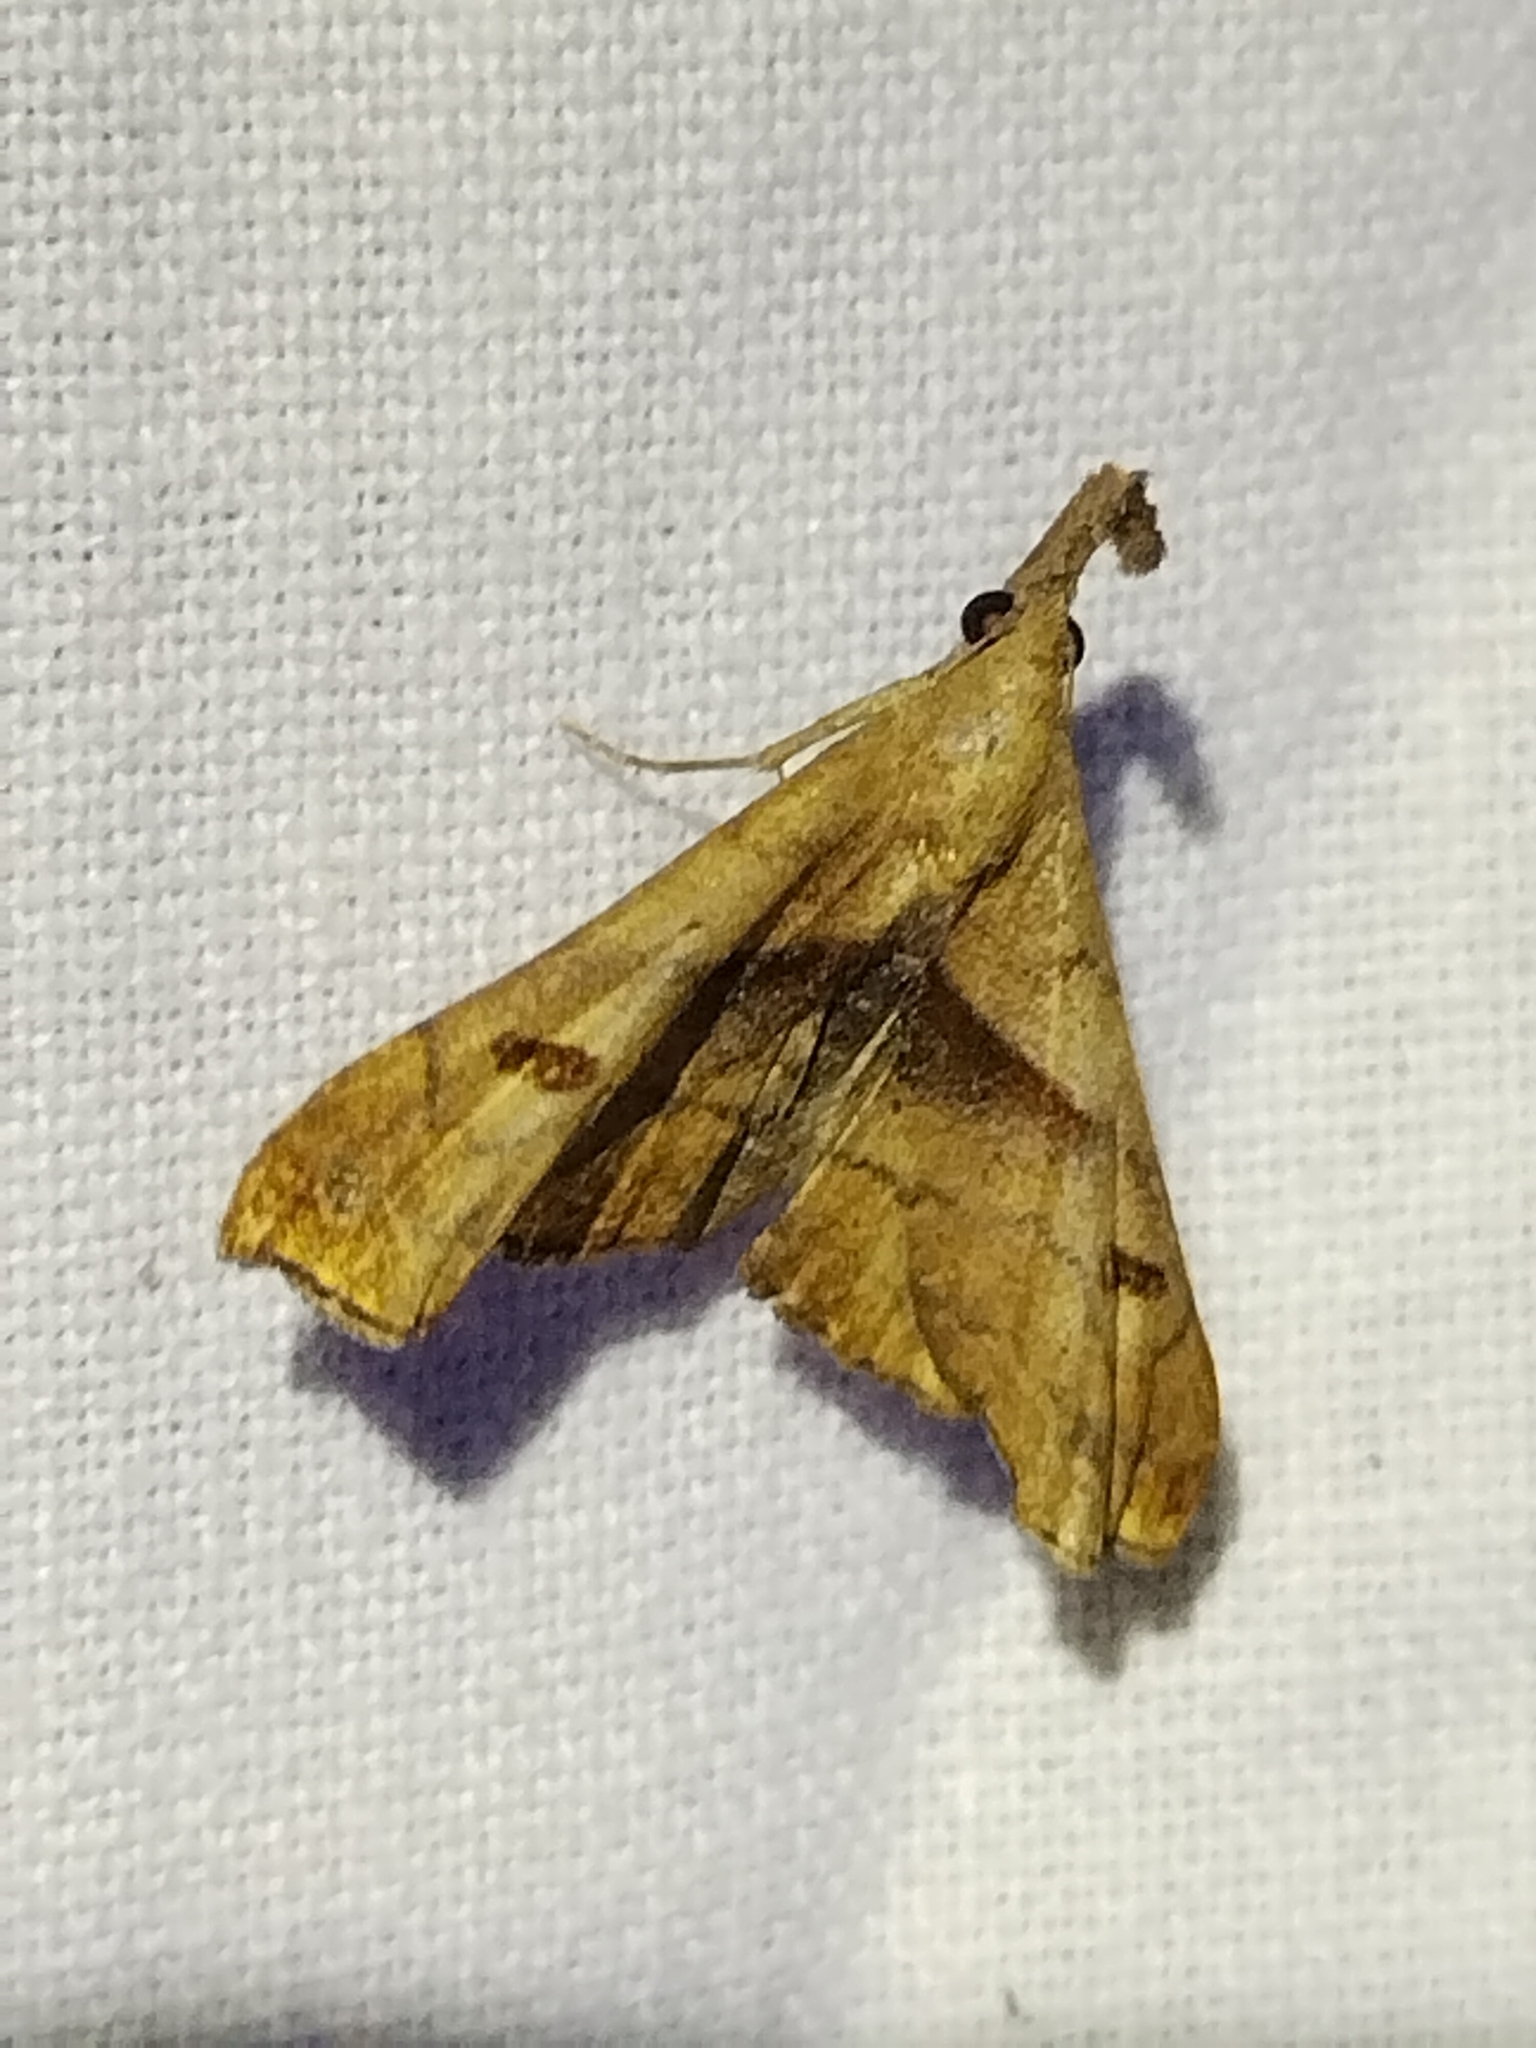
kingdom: Animalia
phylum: Arthropoda
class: Insecta
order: Lepidoptera
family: Erebidae
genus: Palthis
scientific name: Palthis angulalis
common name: Dark-spotted palthis moth
